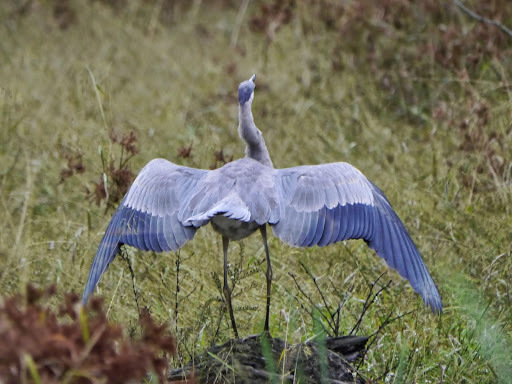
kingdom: Animalia
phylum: Chordata
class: Aves
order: Pelecaniformes
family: Ardeidae
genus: Ardea
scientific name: Ardea herodias
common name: Great blue heron
